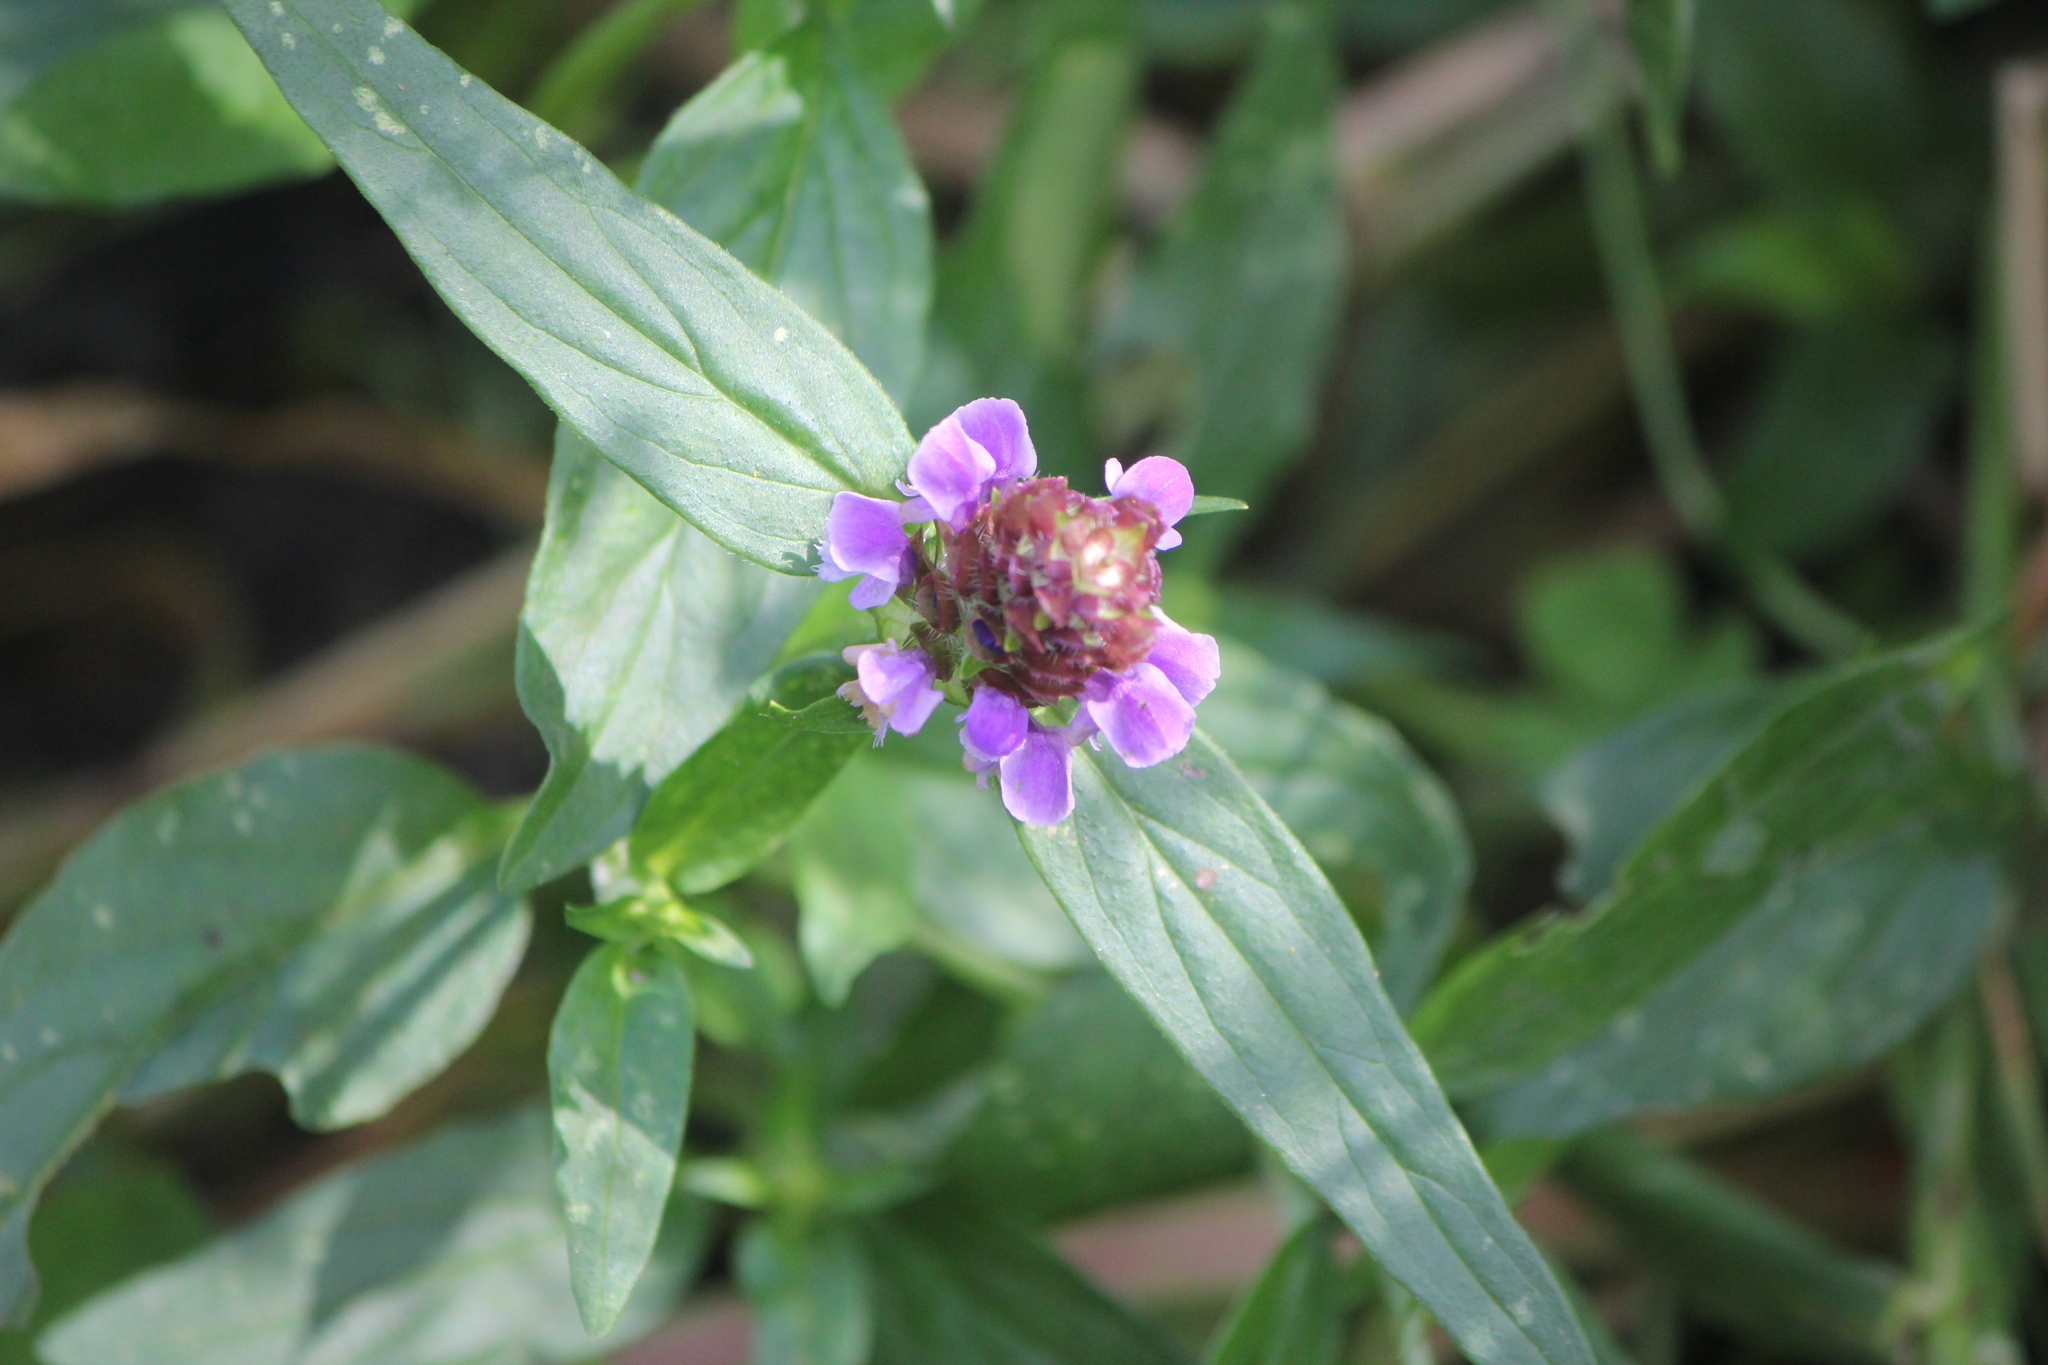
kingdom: Plantae
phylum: Tracheophyta
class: Magnoliopsida
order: Lamiales
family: Lamiaceae
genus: Prunella
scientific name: Prunella vulgaris
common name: Heal-all
